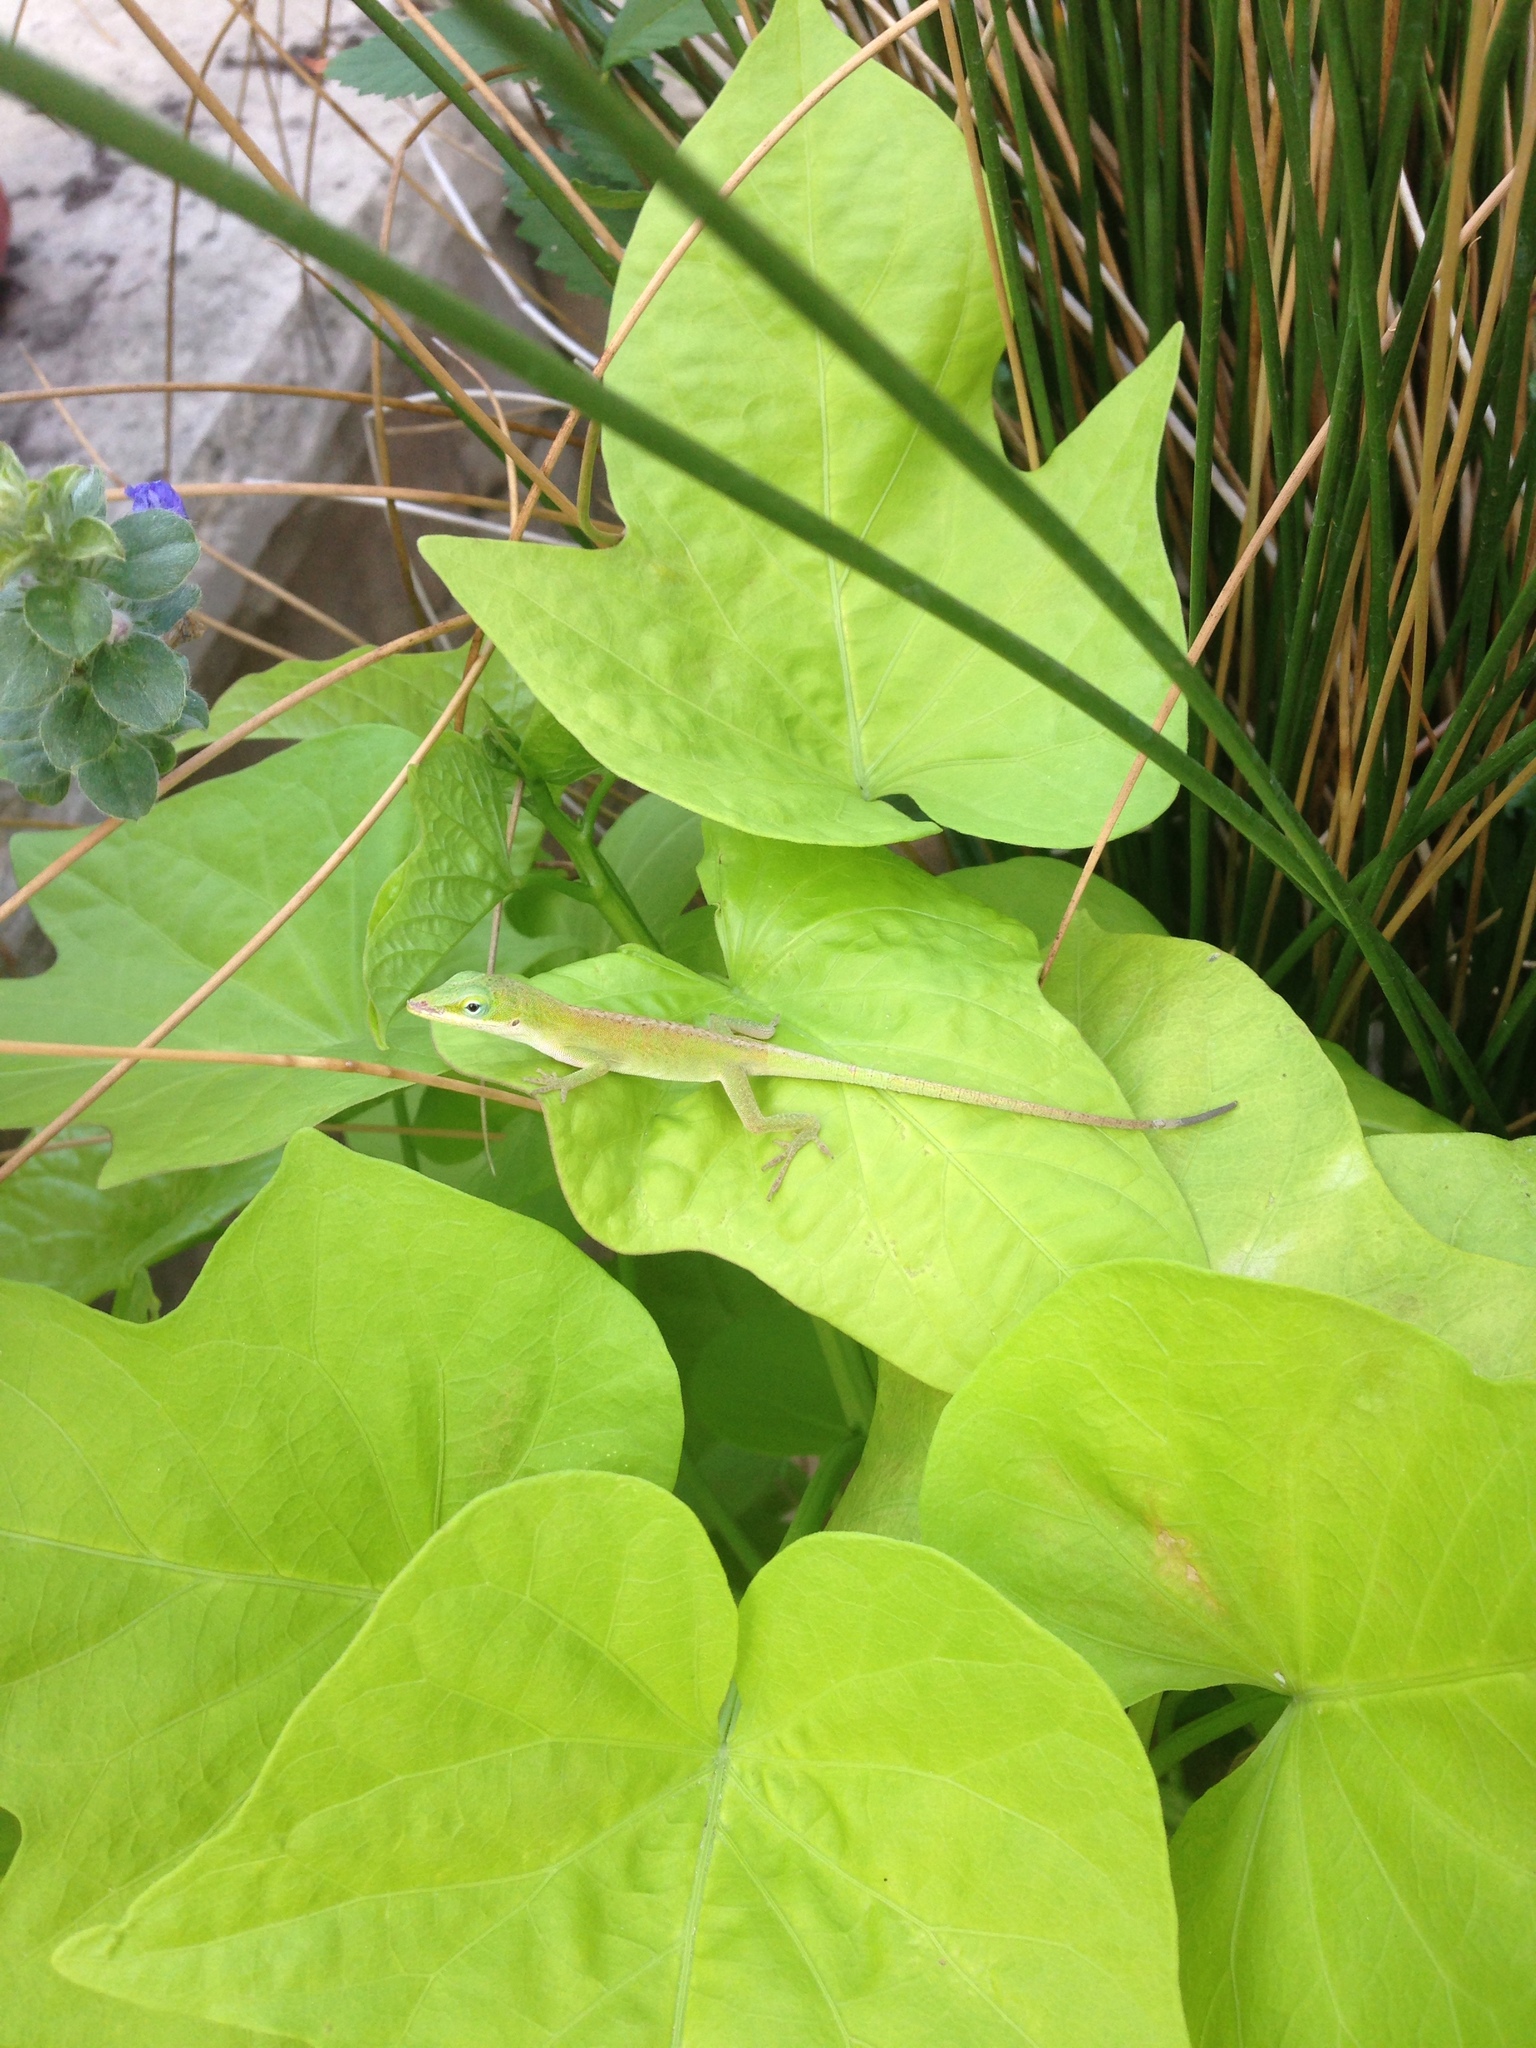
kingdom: Animalia
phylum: Chordata
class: Squamata
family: Dactyloidae
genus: Anolis
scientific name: Anolis carolinensis
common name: Green anole
